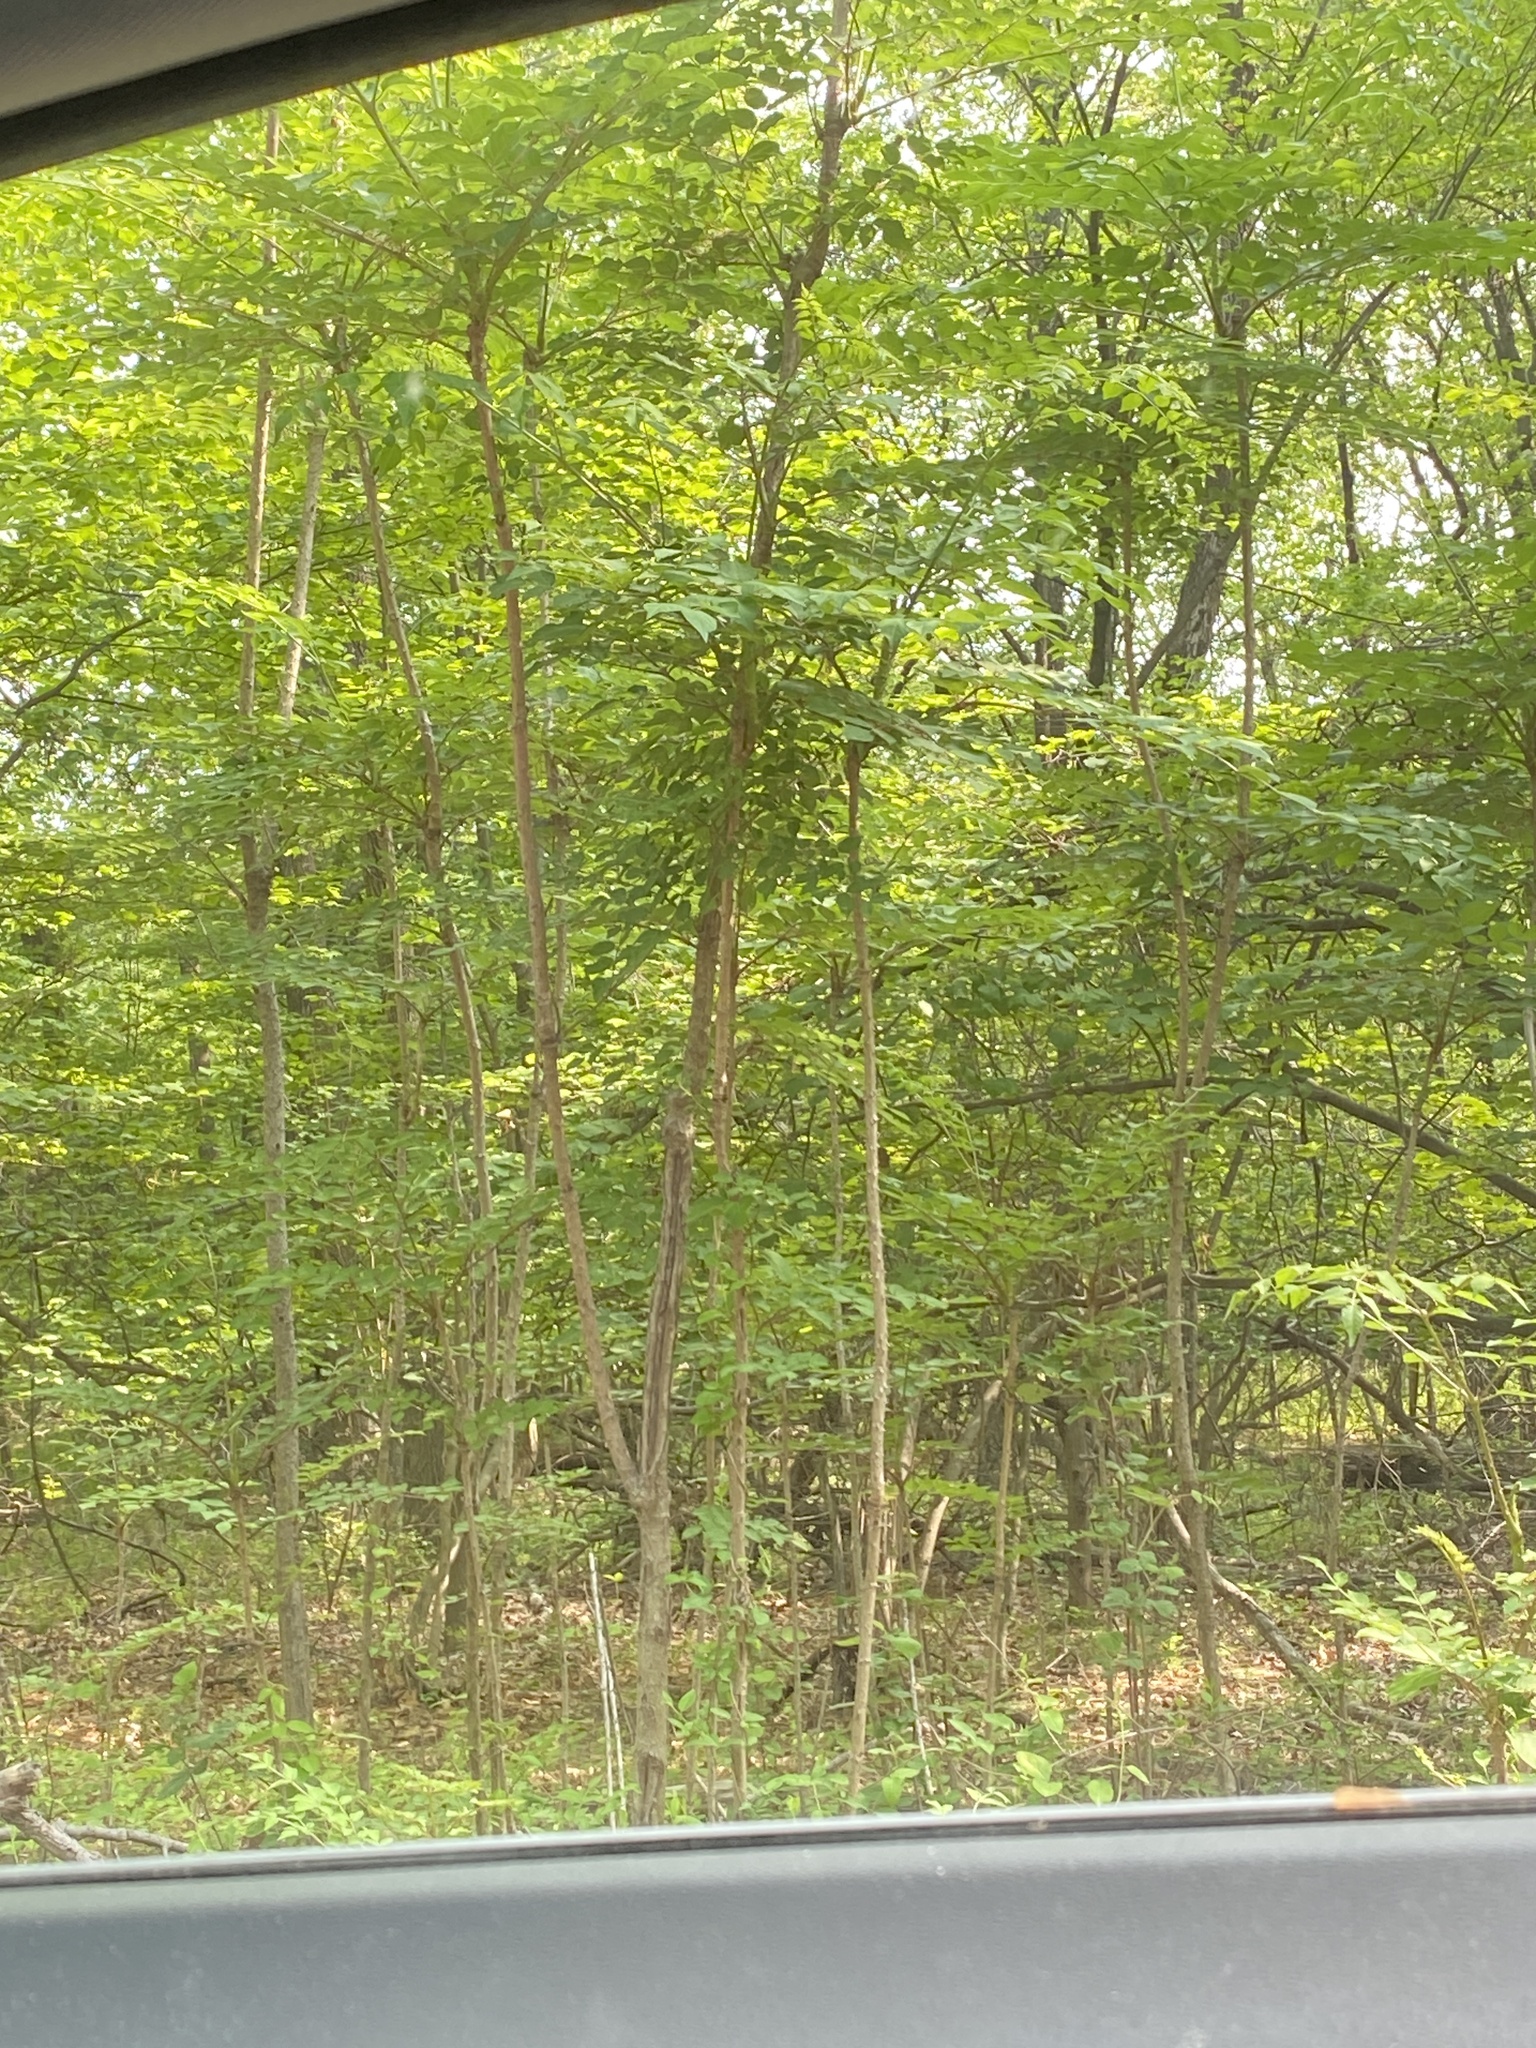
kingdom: Plantae
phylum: Tracheophyta
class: Magnoliopsida
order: Apiales
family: Araliaceae
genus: Aralia
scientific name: Aralia elata
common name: Japanese angelica-tree
